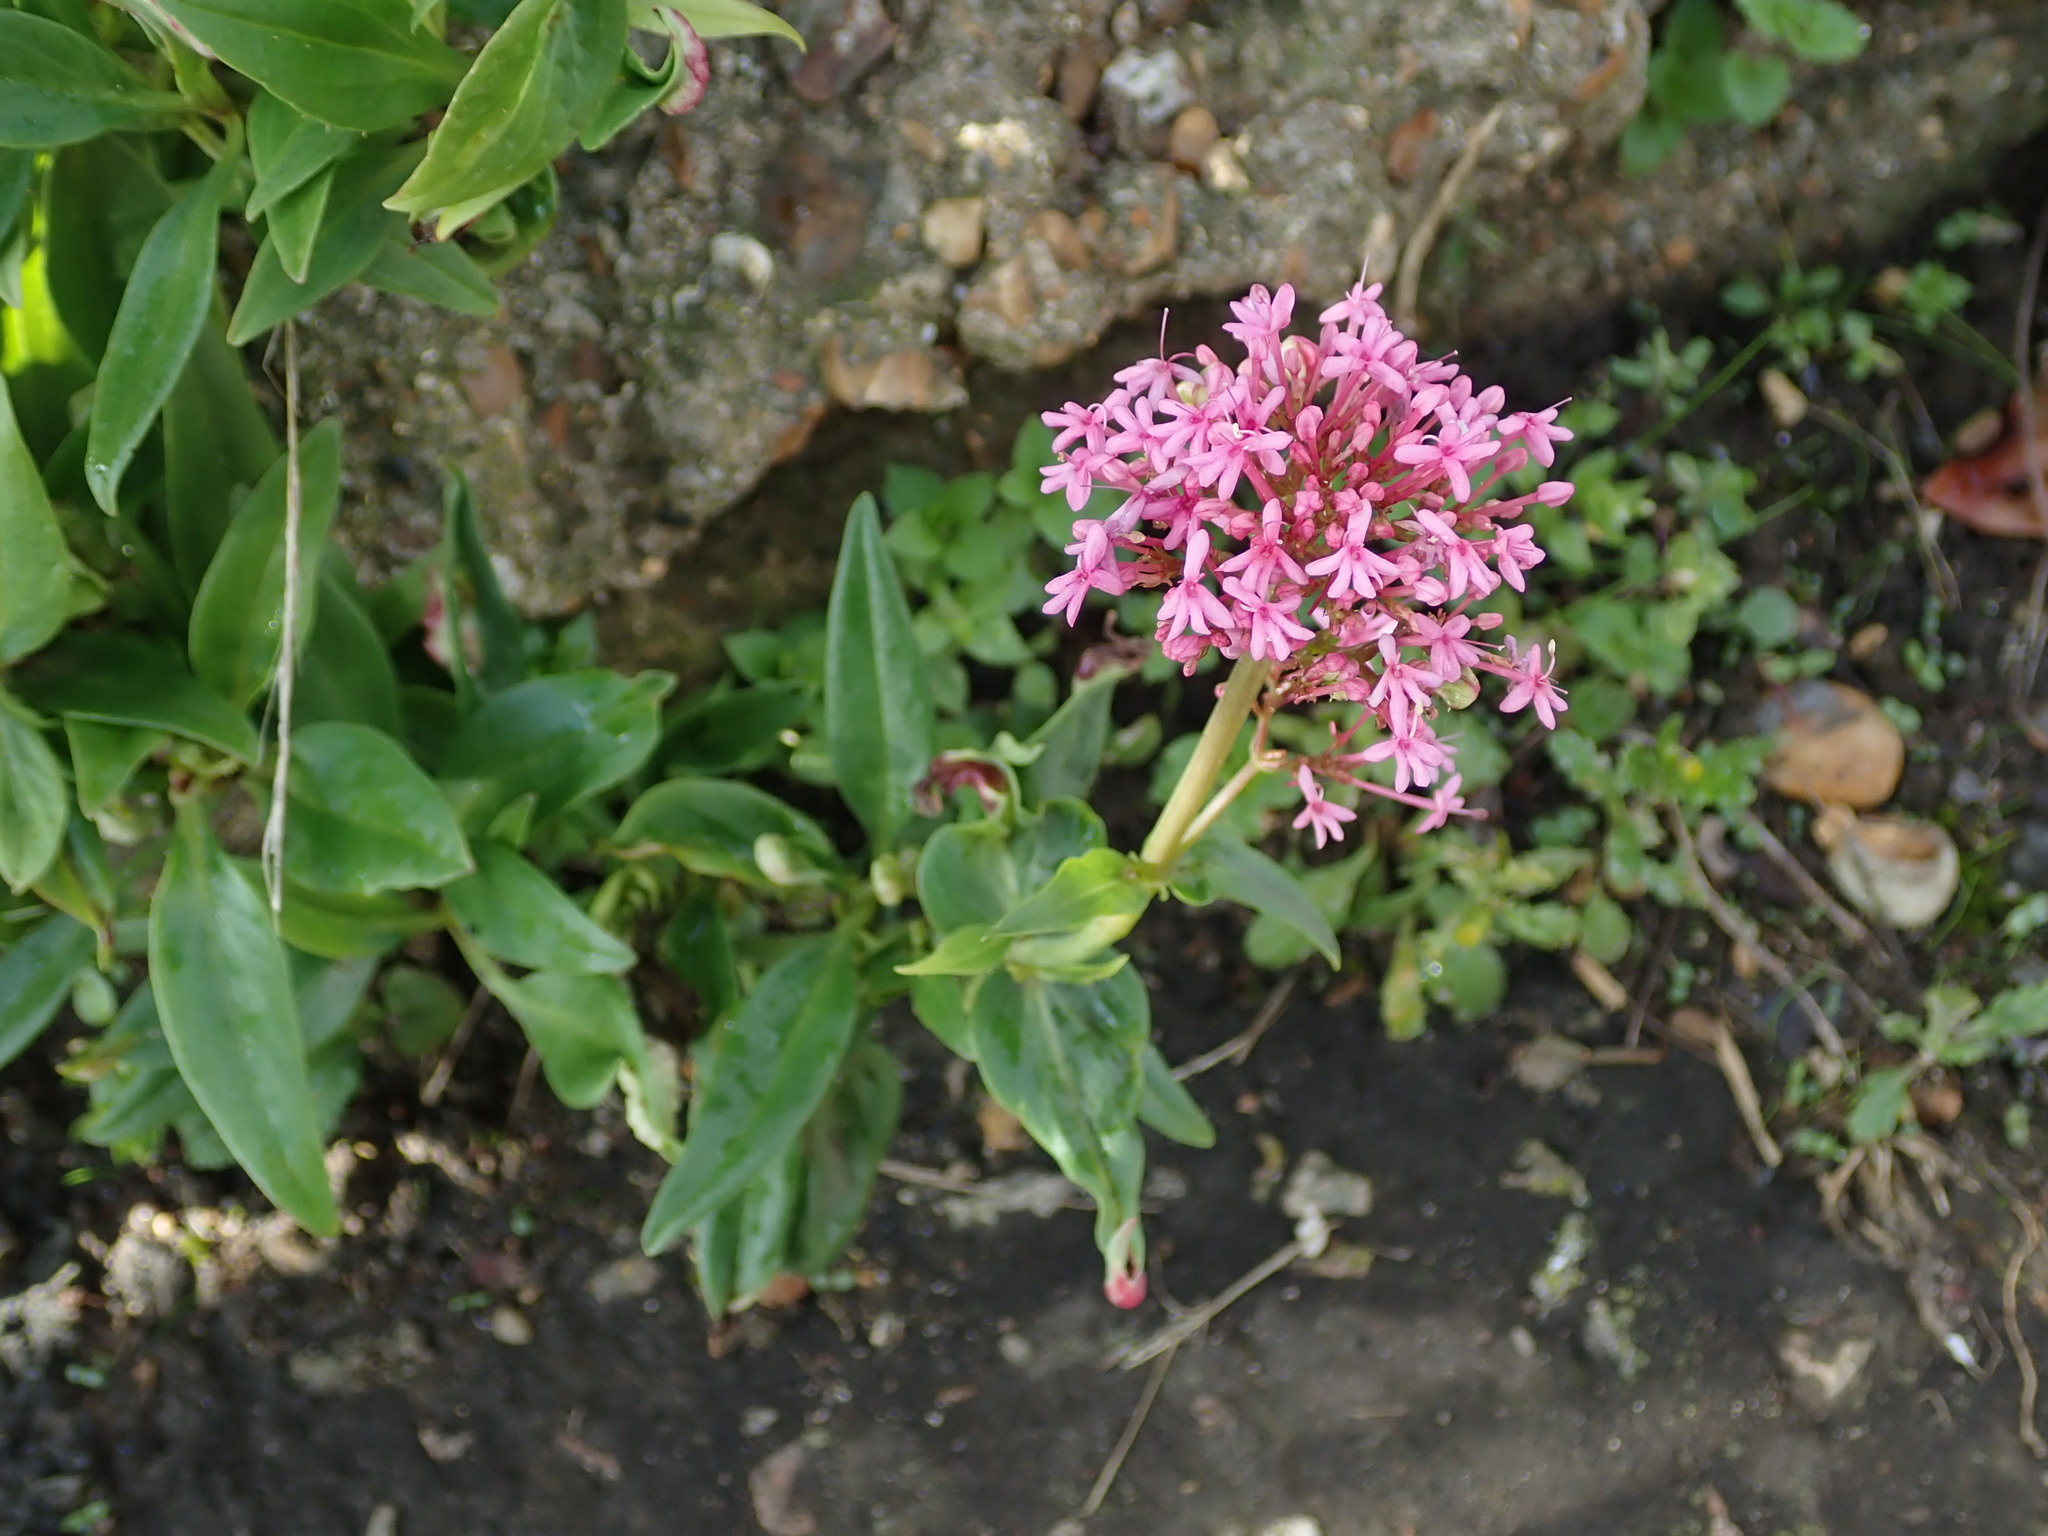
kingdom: Plantae
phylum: Tracheophyta
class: Magnoliopsida
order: Dipsacales
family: Caprifoliaceae
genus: Centranthus
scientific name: Centranthus ruber
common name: Red valerian
